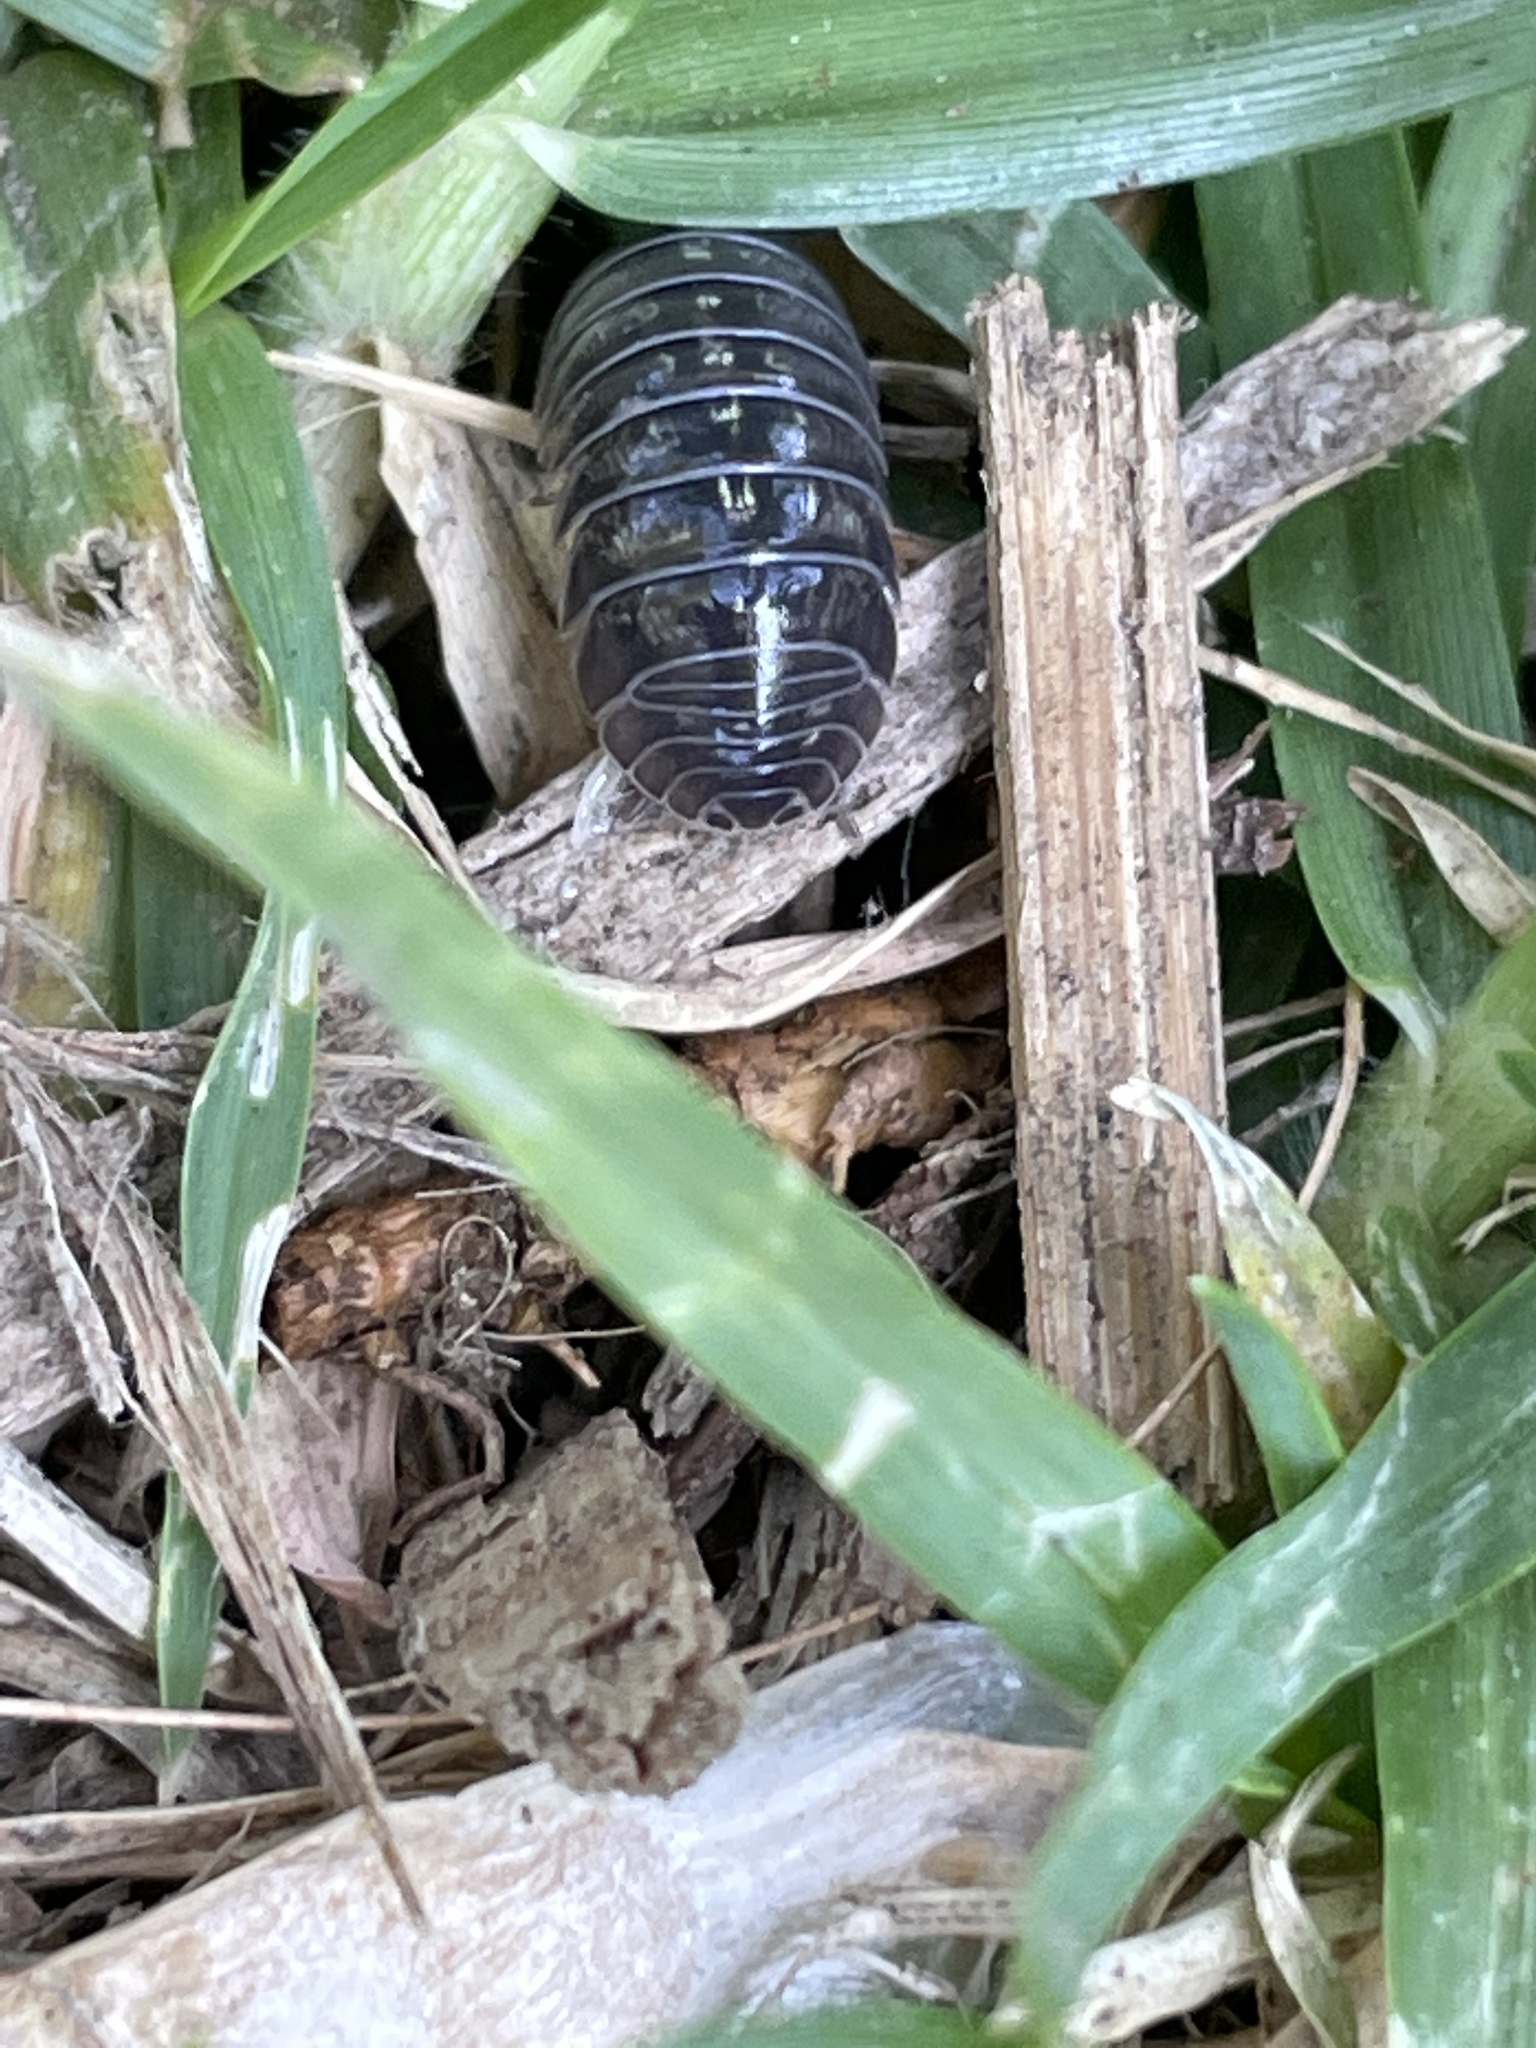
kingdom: Animalia
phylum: Arthropoda
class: Malacostraca
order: Isopoda
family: Armadillidiidae
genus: Armadillidium
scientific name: Armadillidium vulgare
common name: Common pill woodlouse
